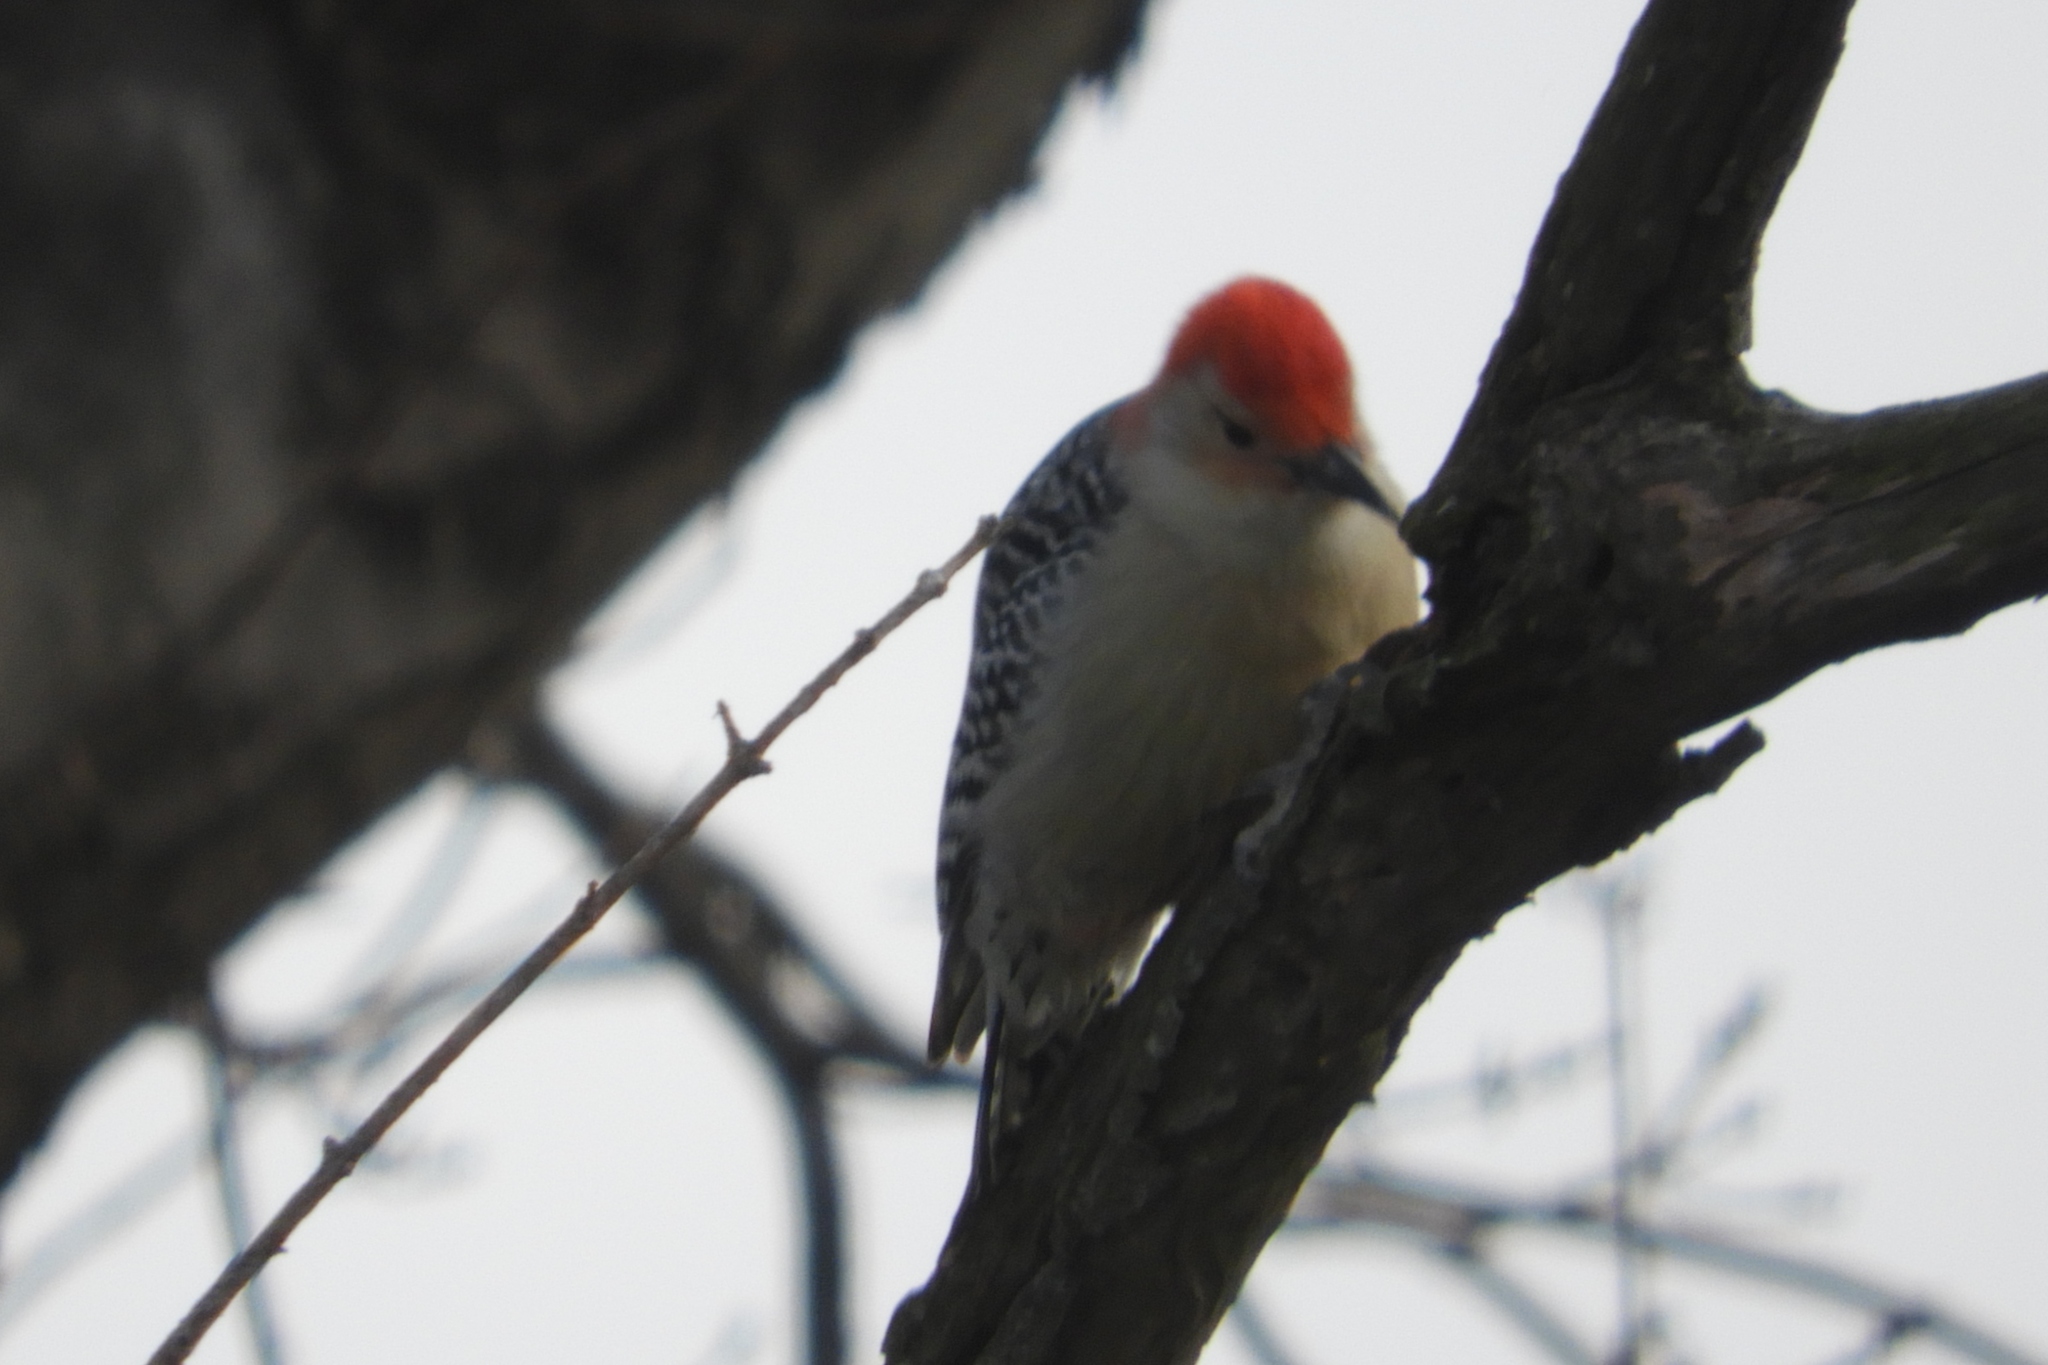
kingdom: Animalia
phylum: Chordata
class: Aves
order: Piciformes
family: Picidae
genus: Melanerpes
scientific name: Melanerpes carolinus
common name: Red-bellied woodpecker
